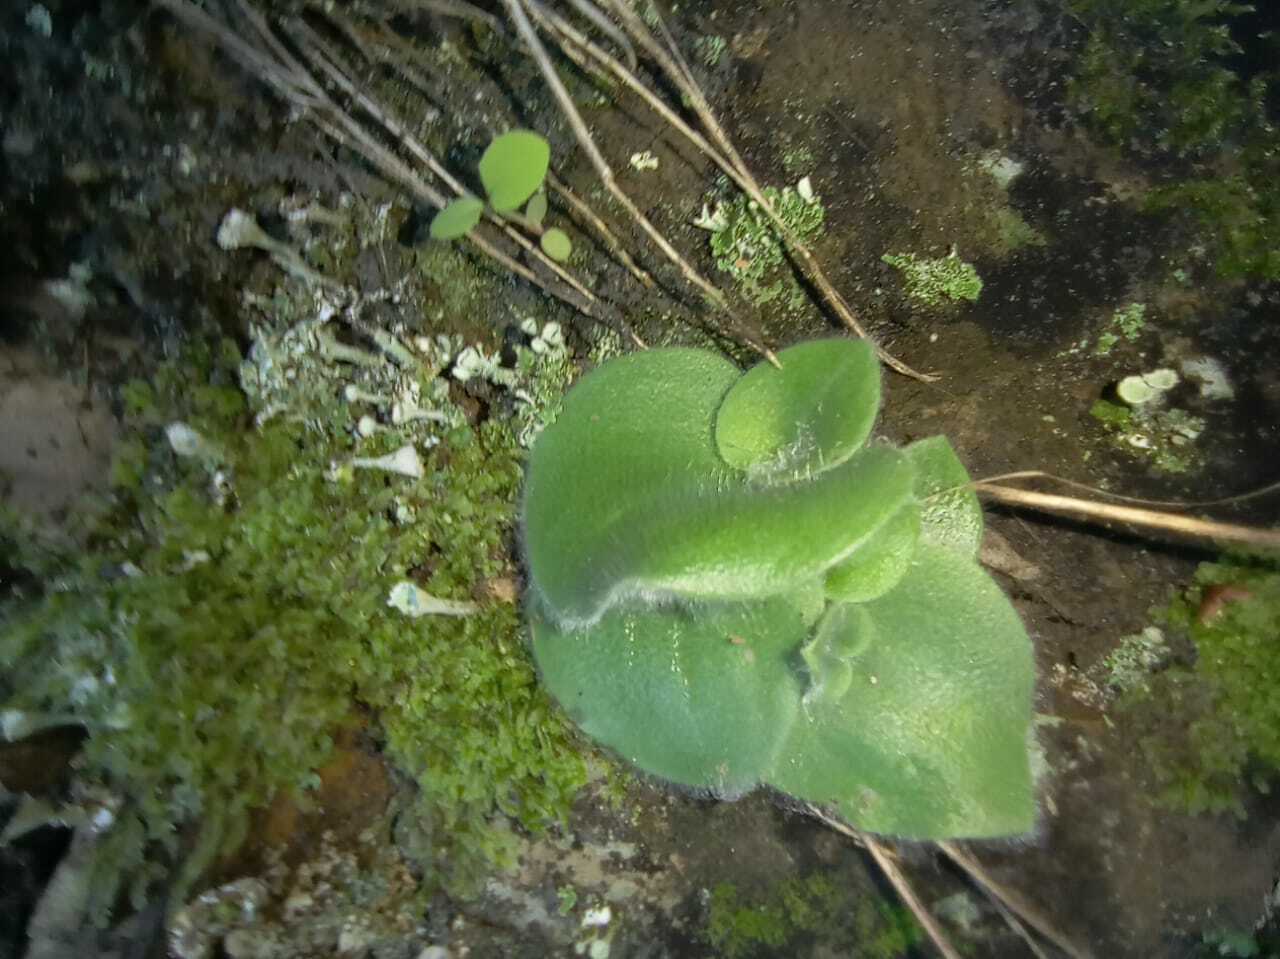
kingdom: Plantae
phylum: Tracheophyta
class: Liliopsida
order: Asparagales
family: Orchidaceae
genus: Holothrix
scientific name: Holothrix villosa
